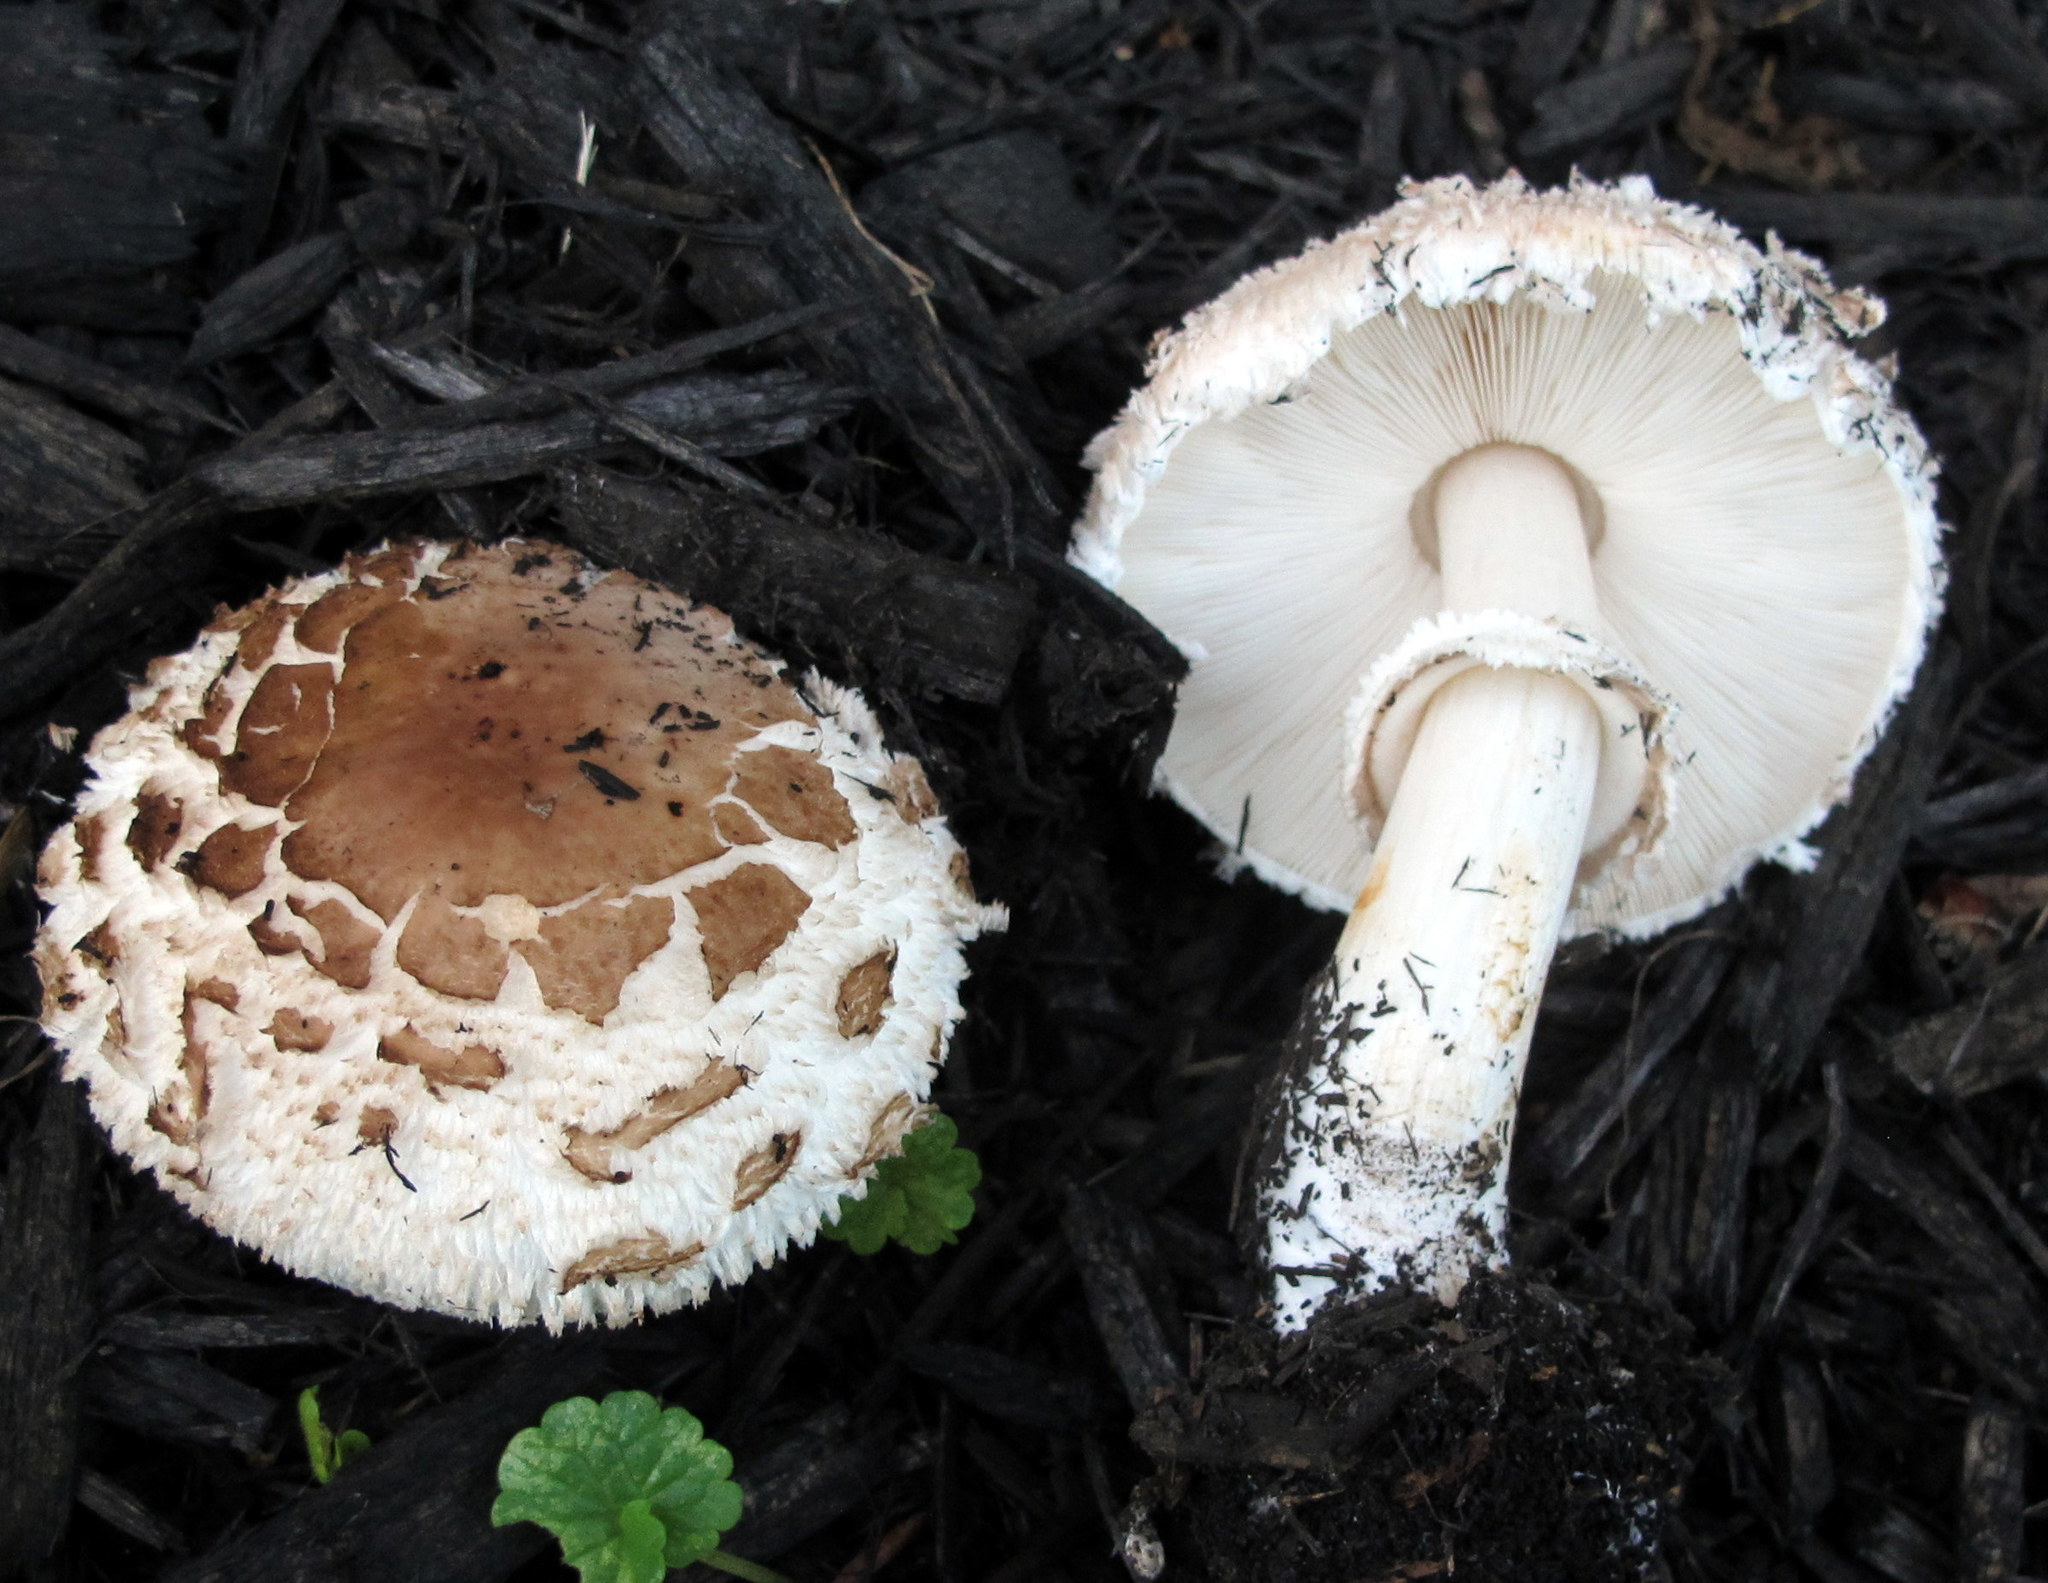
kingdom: Fungi
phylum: Basidiomycota
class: Agaricomycetes
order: Agaricales
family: Agaricaceae
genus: Chlorophyllum
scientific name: Chlorophyllum rhacodes
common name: Shaggy parasol
